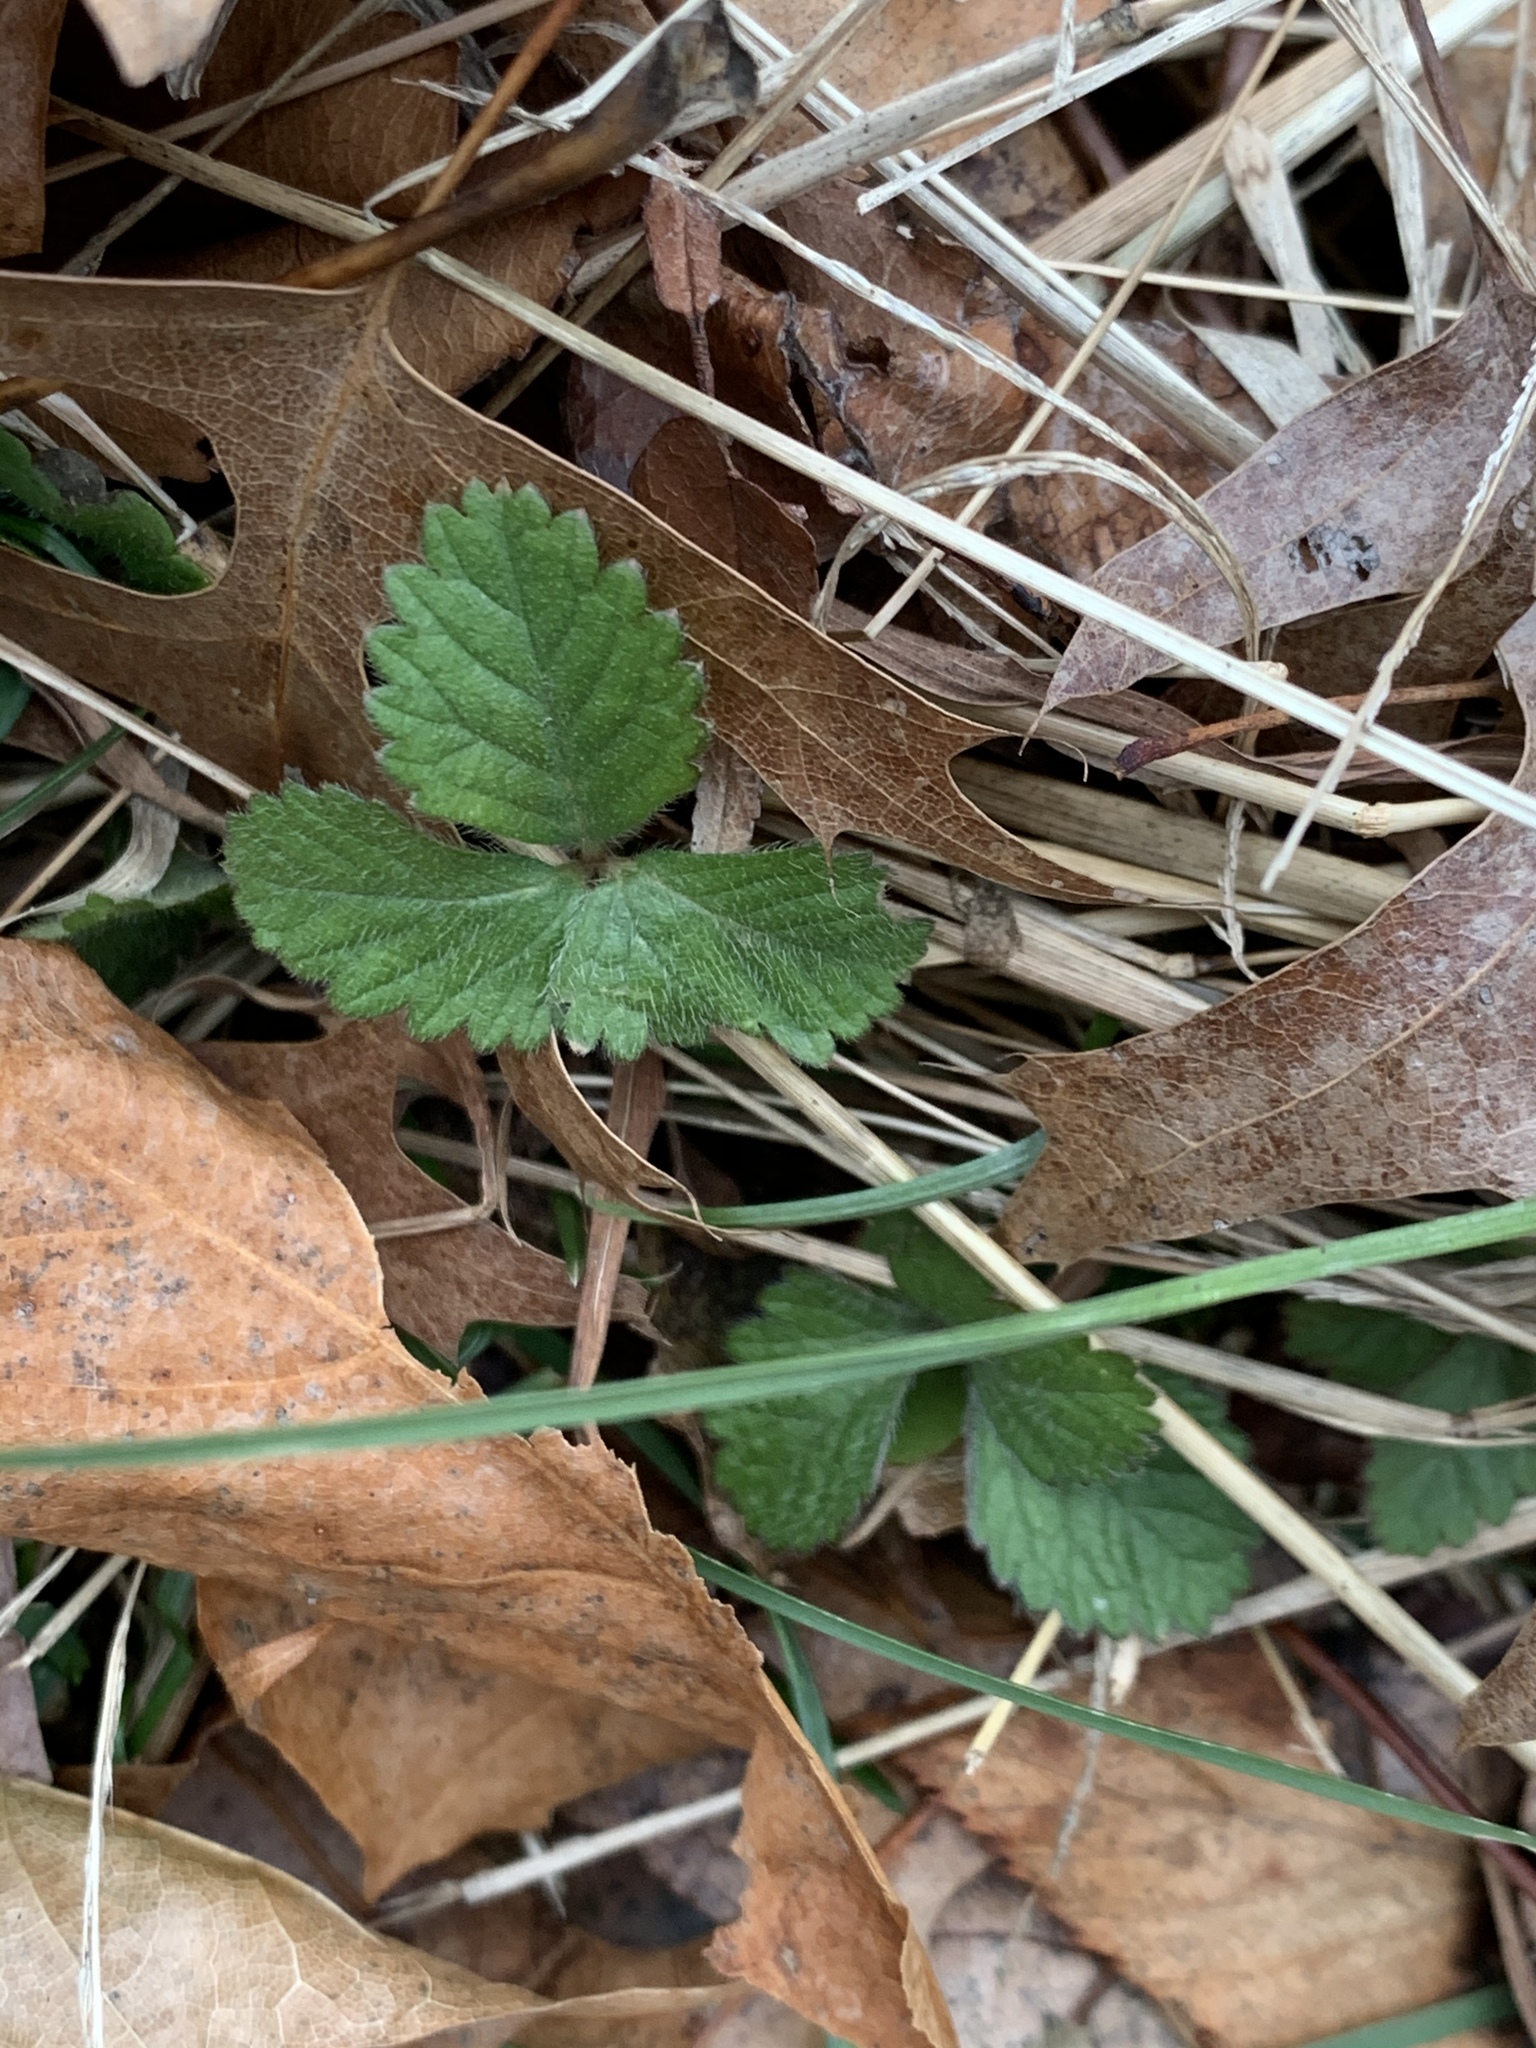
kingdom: Plantae
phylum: Tracheophyta
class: Magnoliopsida
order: Rosales
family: Rosaceae
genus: Potentilla
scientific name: Potentilla indica
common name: Yellow-flowered strawberry
